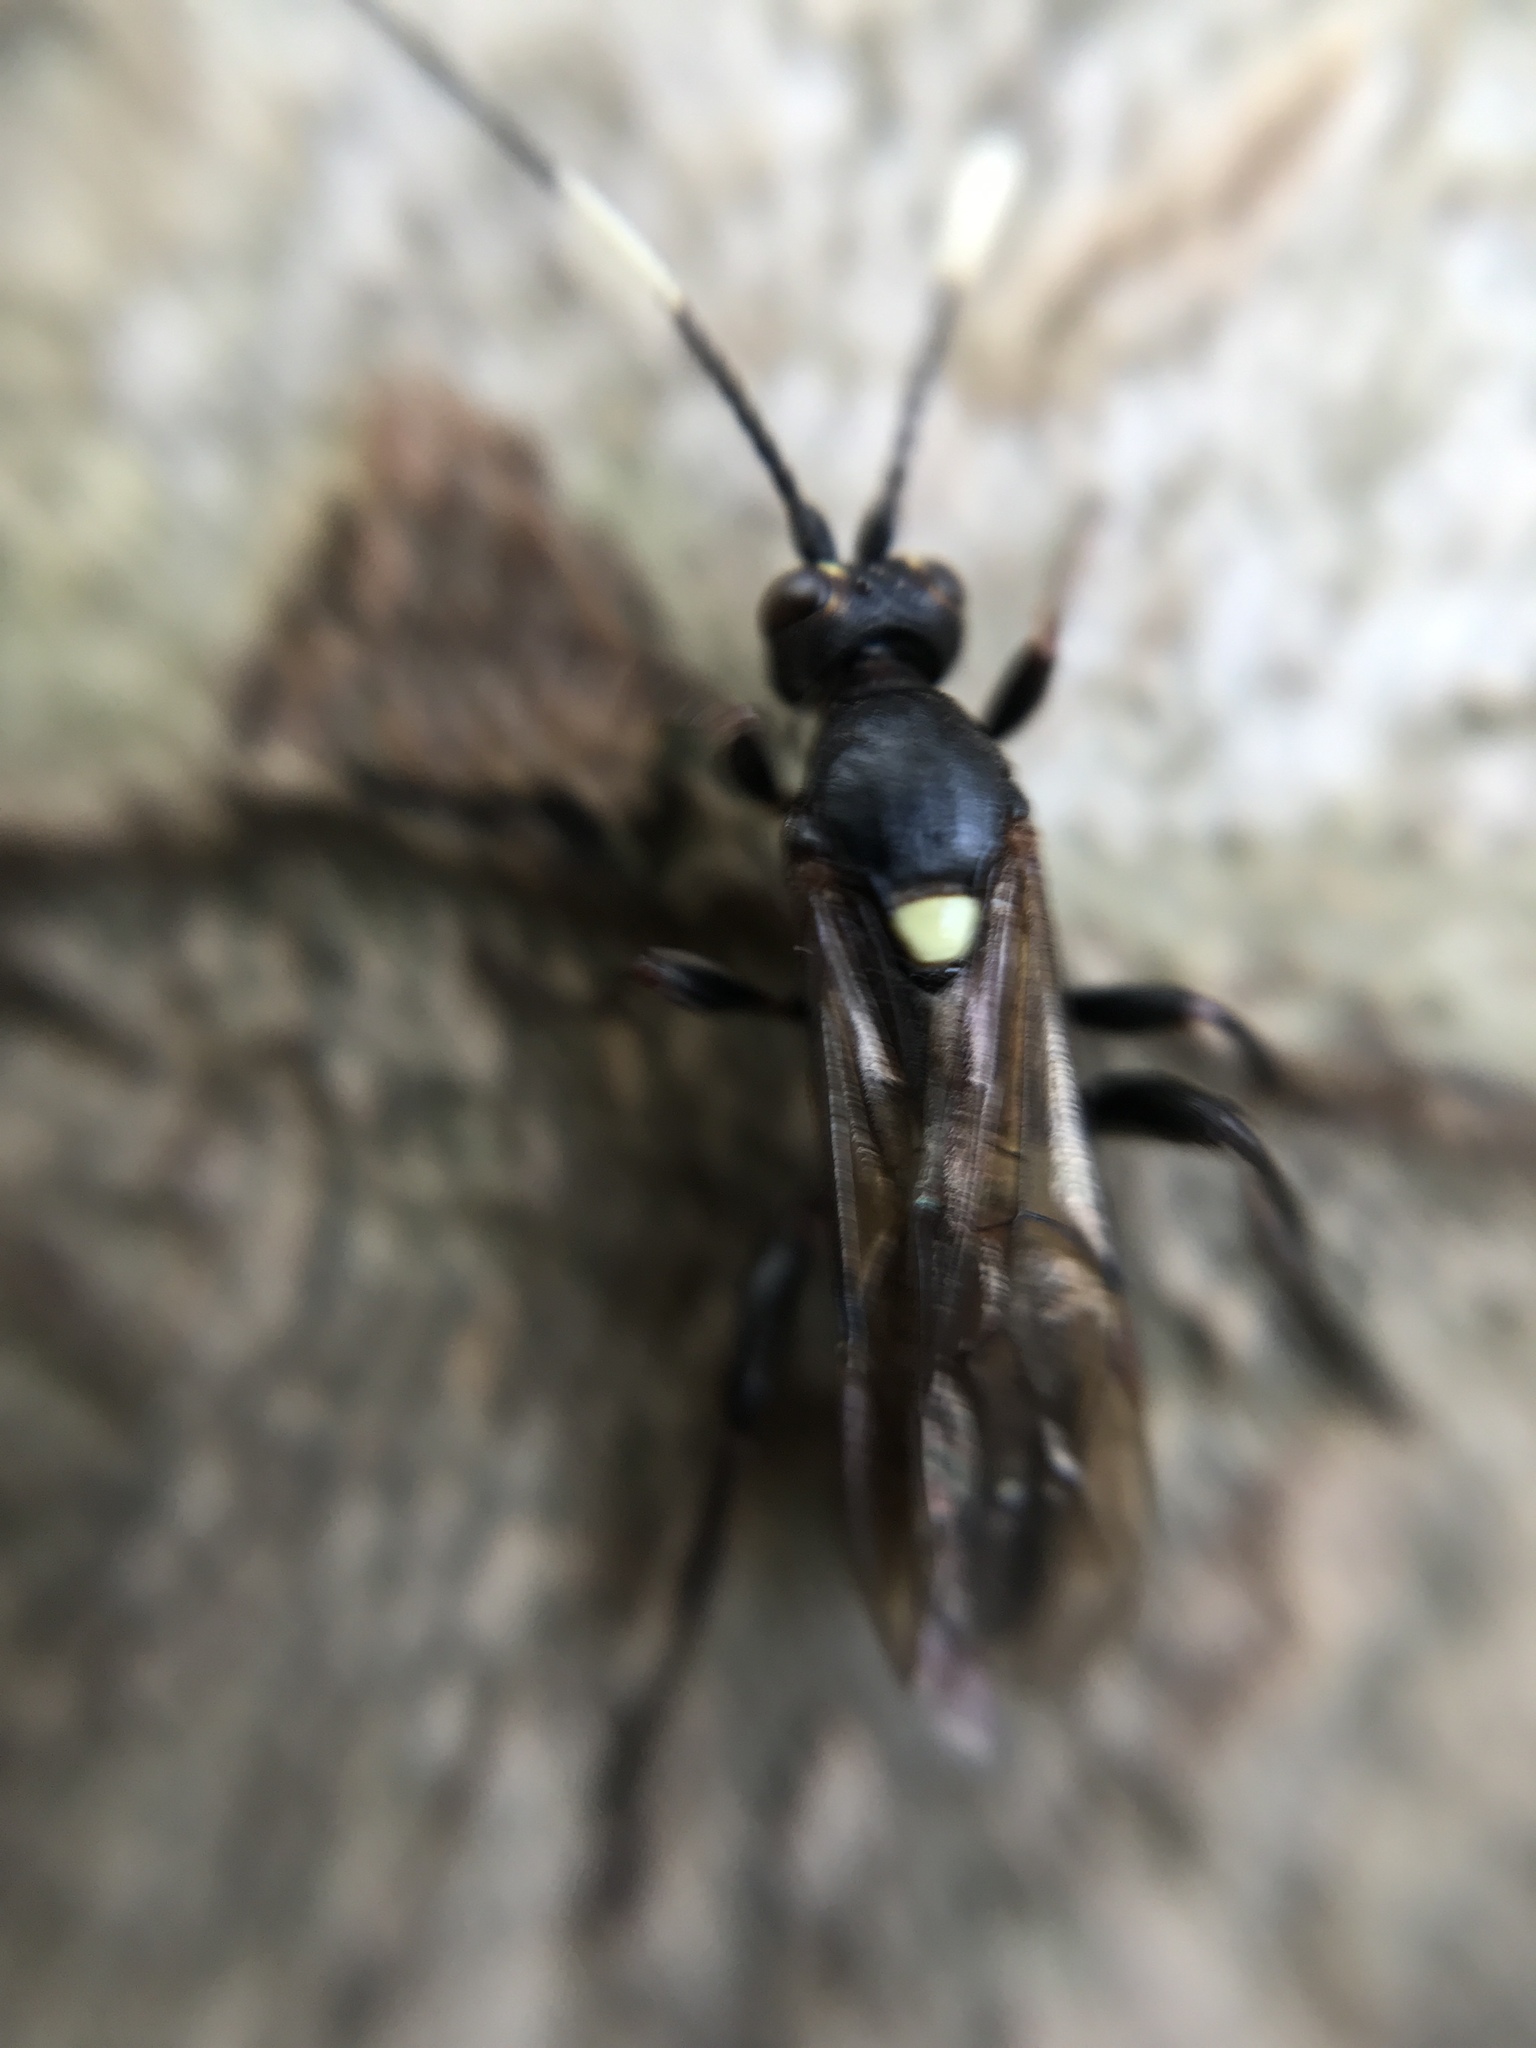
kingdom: Animalia
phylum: Arthropoda
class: Insecta
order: Hymenoptera
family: Ichneumonidae
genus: Cratichneumon
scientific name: Cratichneumon sicarius
